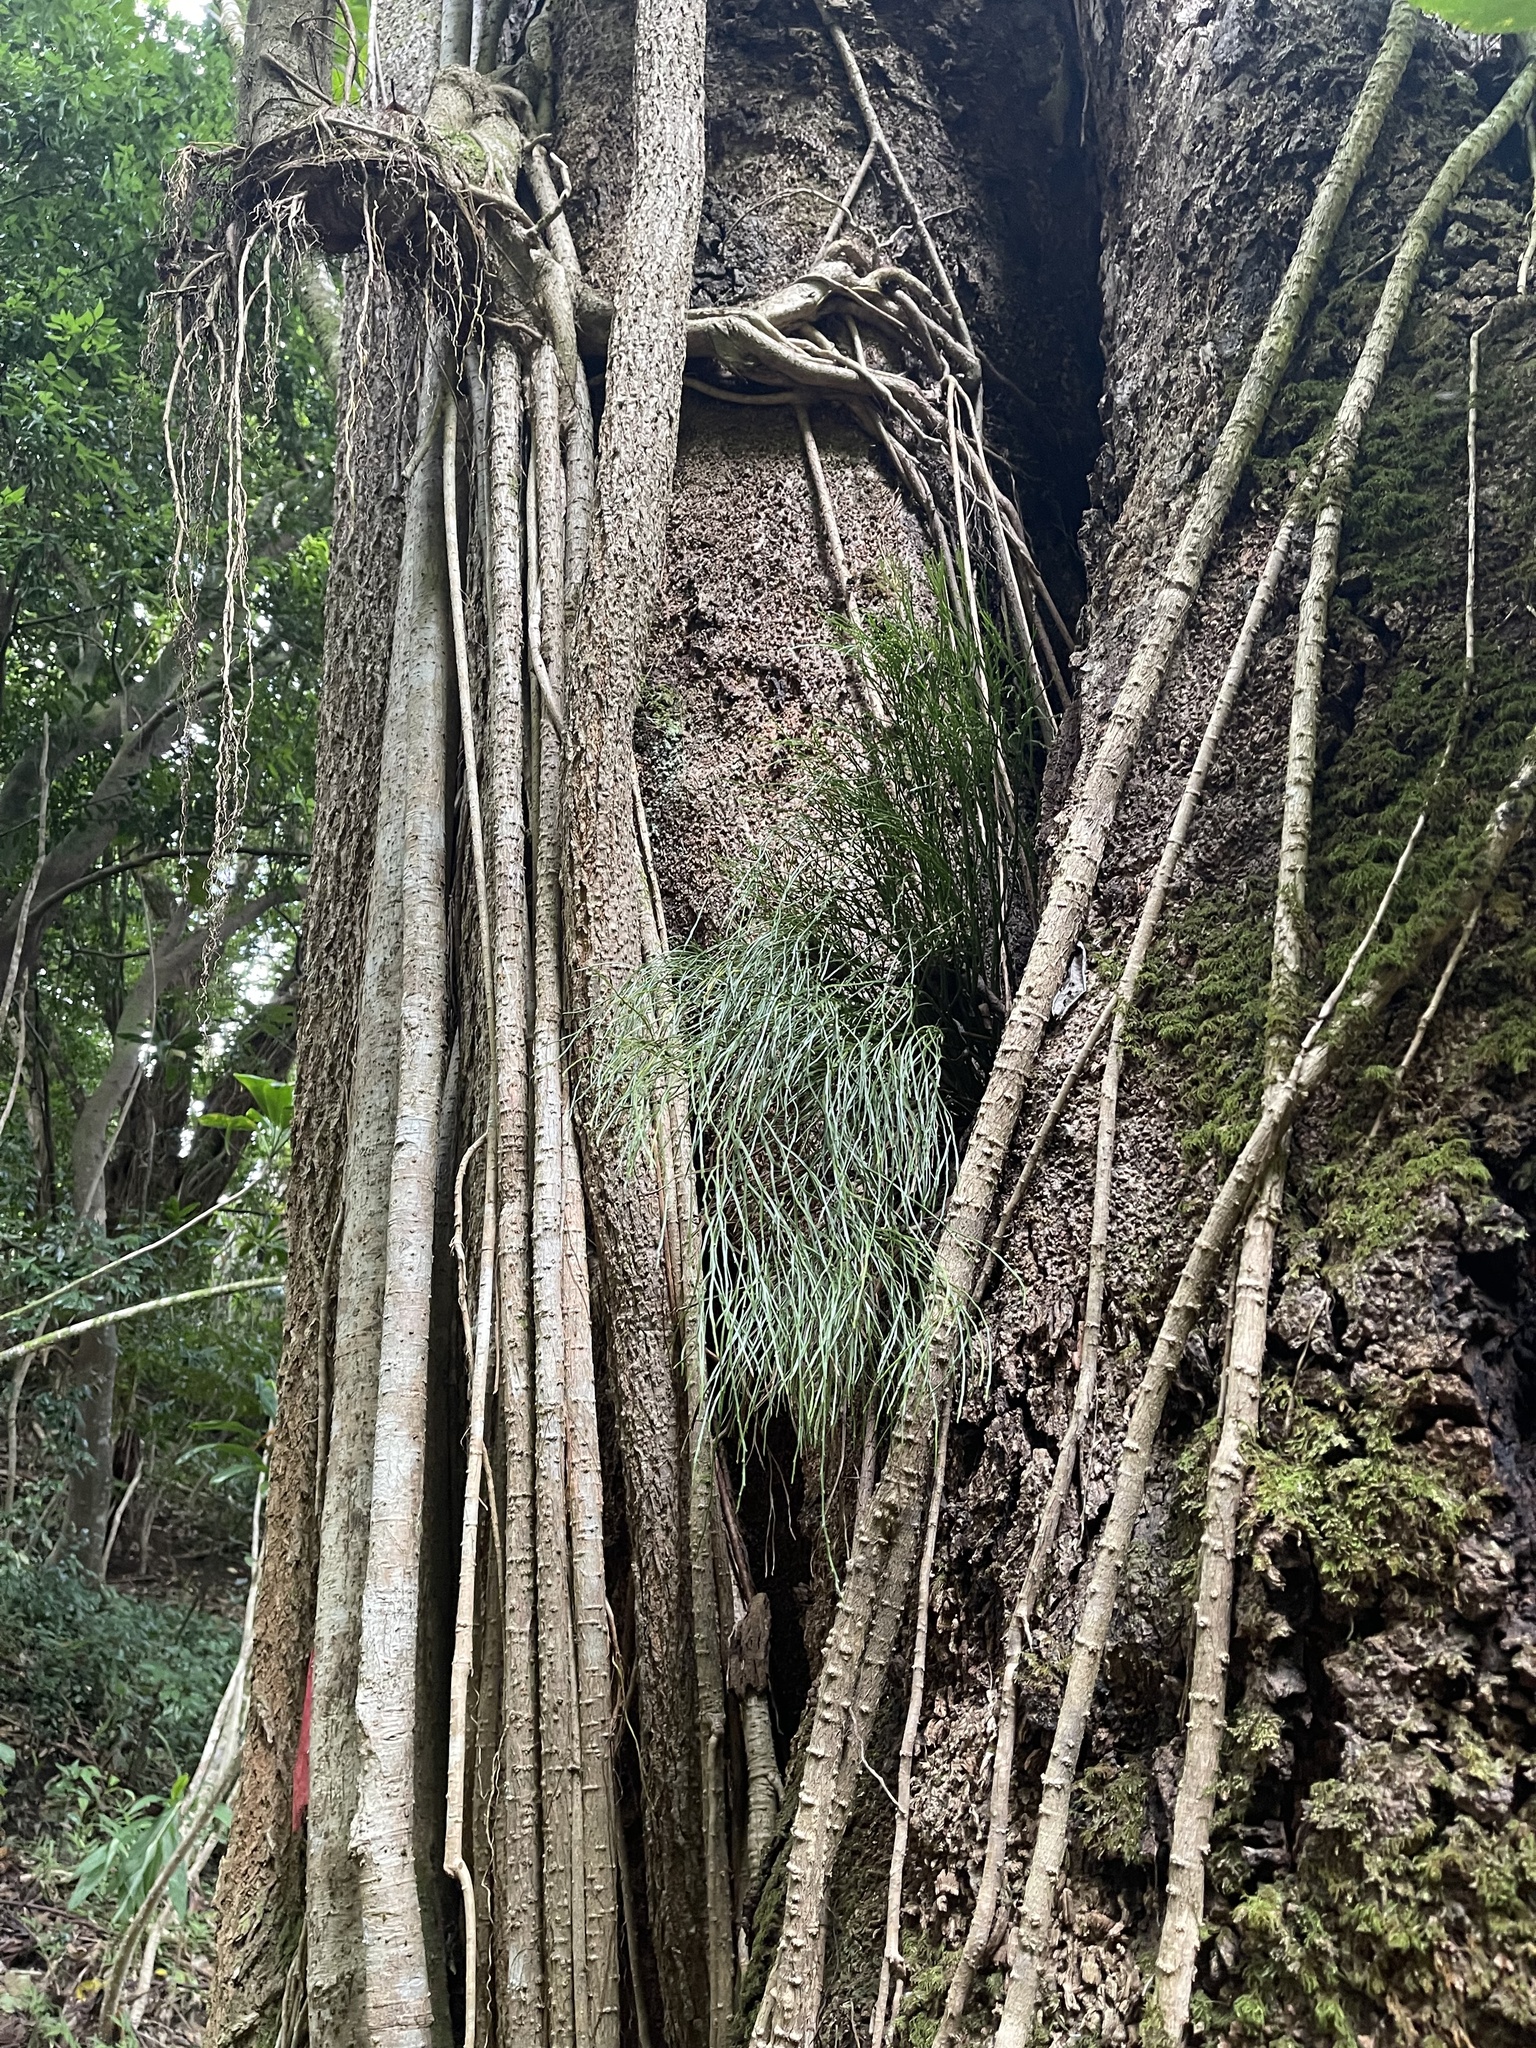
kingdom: Plantae
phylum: Tracheophyta
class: Polypodiopsida
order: Psilotales
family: Psilotaceae
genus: Psilotum
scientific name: Psilotum nudum
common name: Skeleton fork fern
